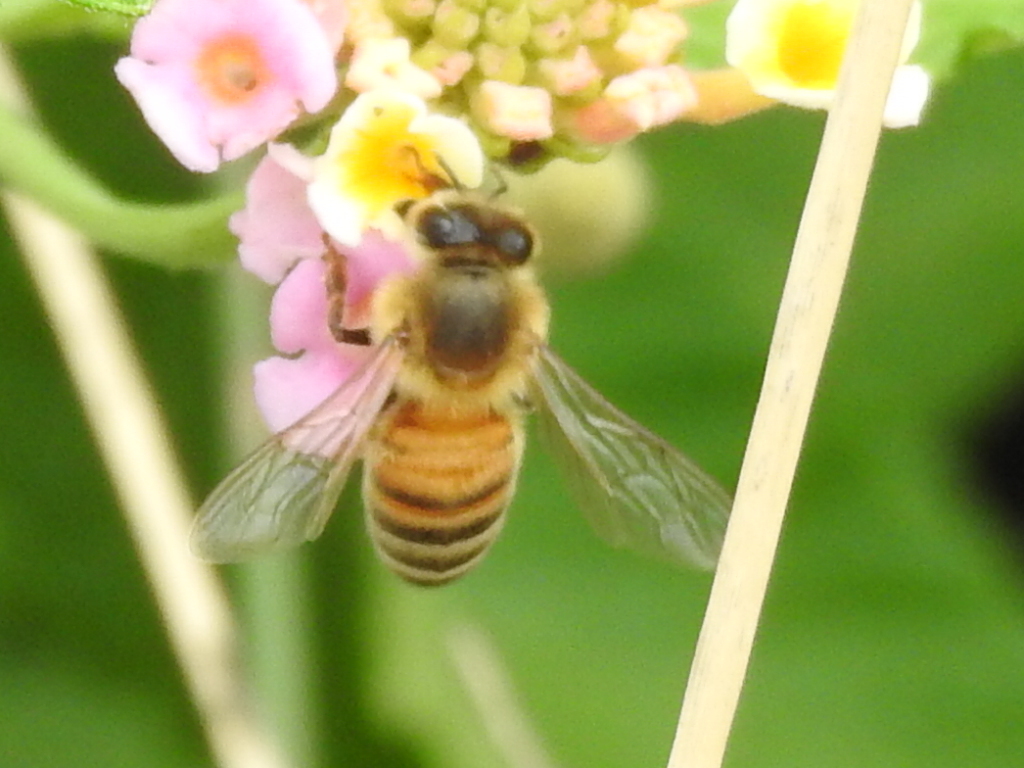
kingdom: Animalia
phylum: Arthropoda
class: Insecta
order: Hymenoptera
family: Apidae
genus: Apis
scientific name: Apis mellifera
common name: Honey bee
